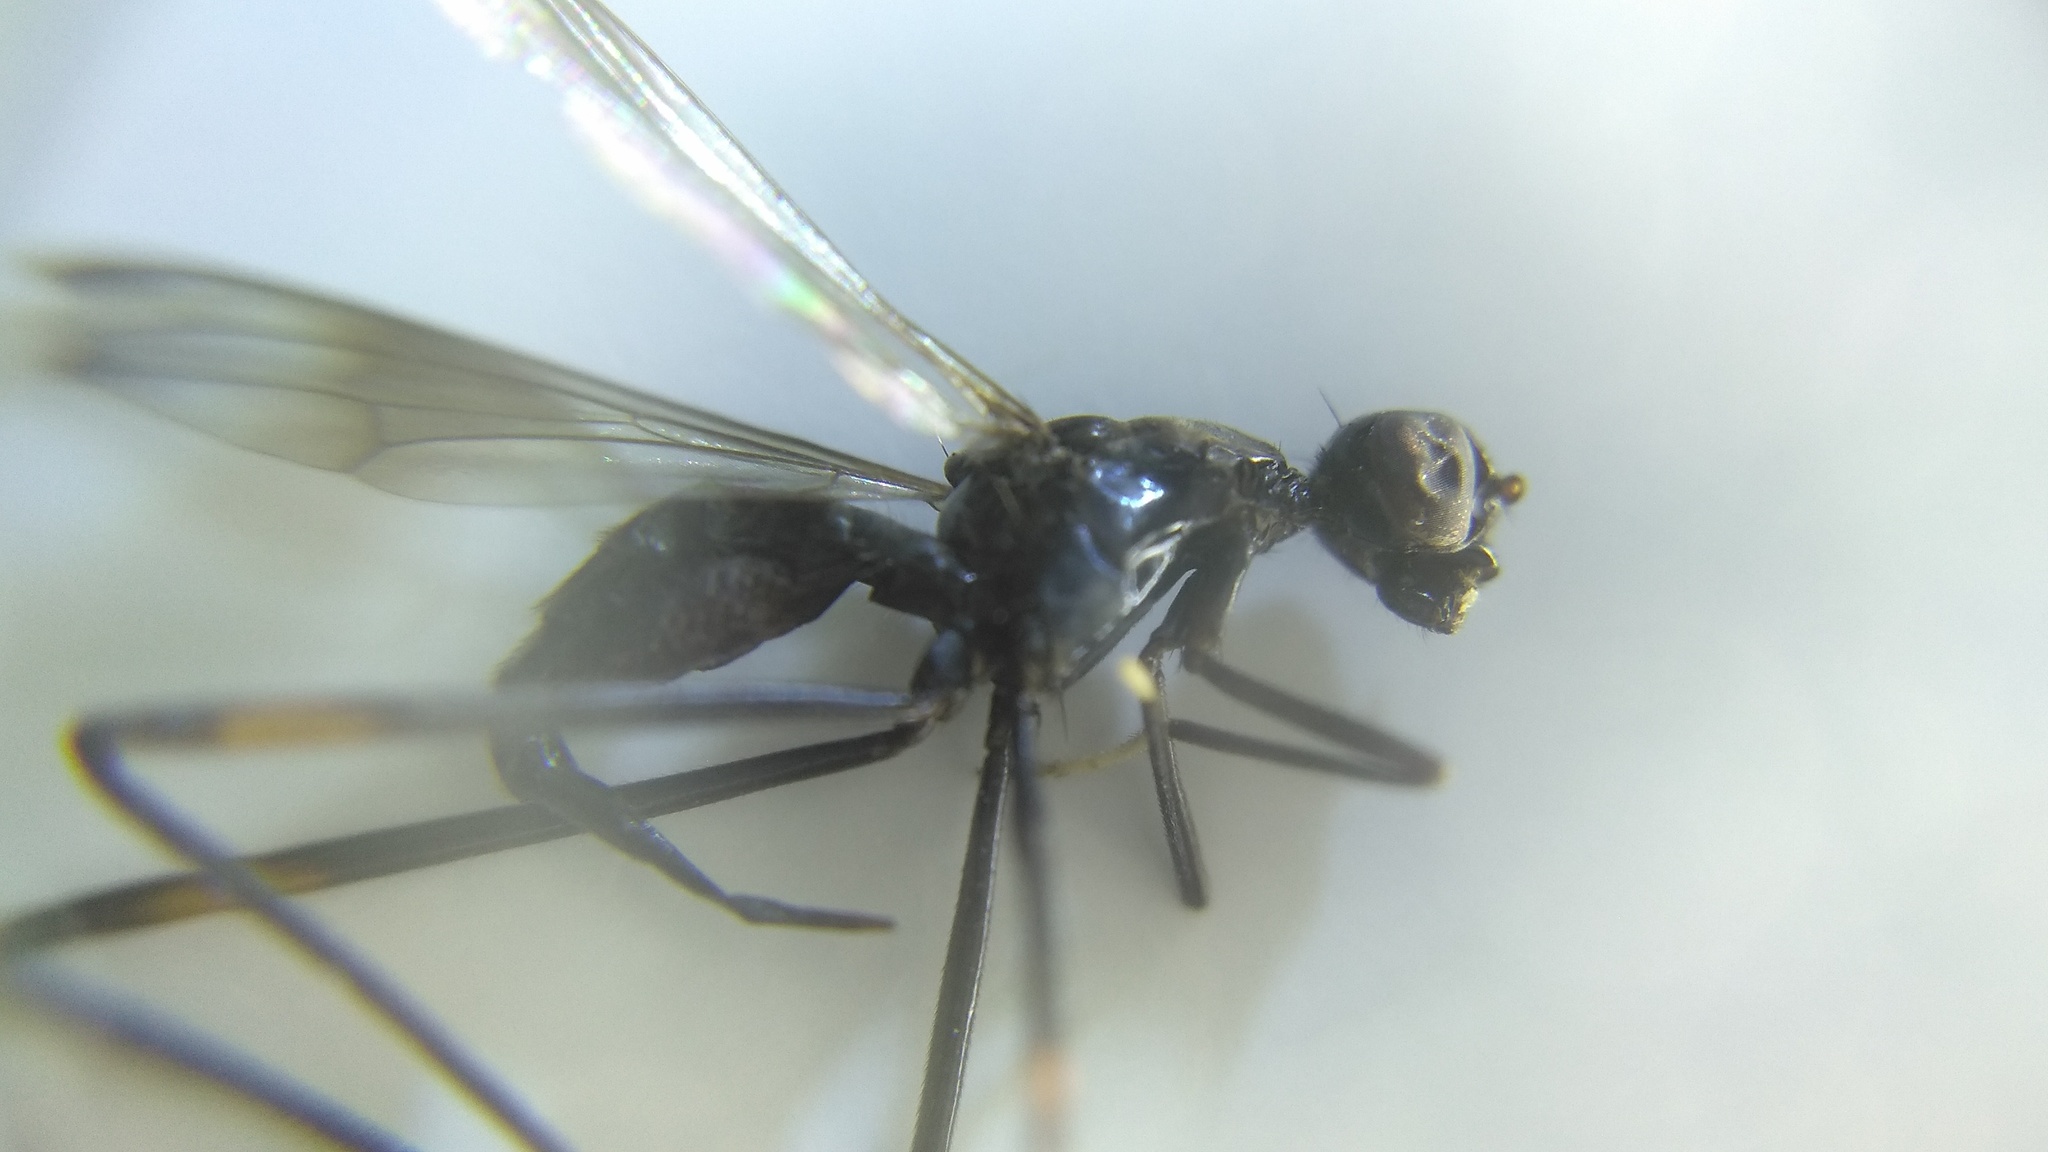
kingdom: Animalia
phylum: Arthropoda
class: Insecta
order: Diptera
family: Micropezidae
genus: Rainieria
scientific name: Rainieria calceata
